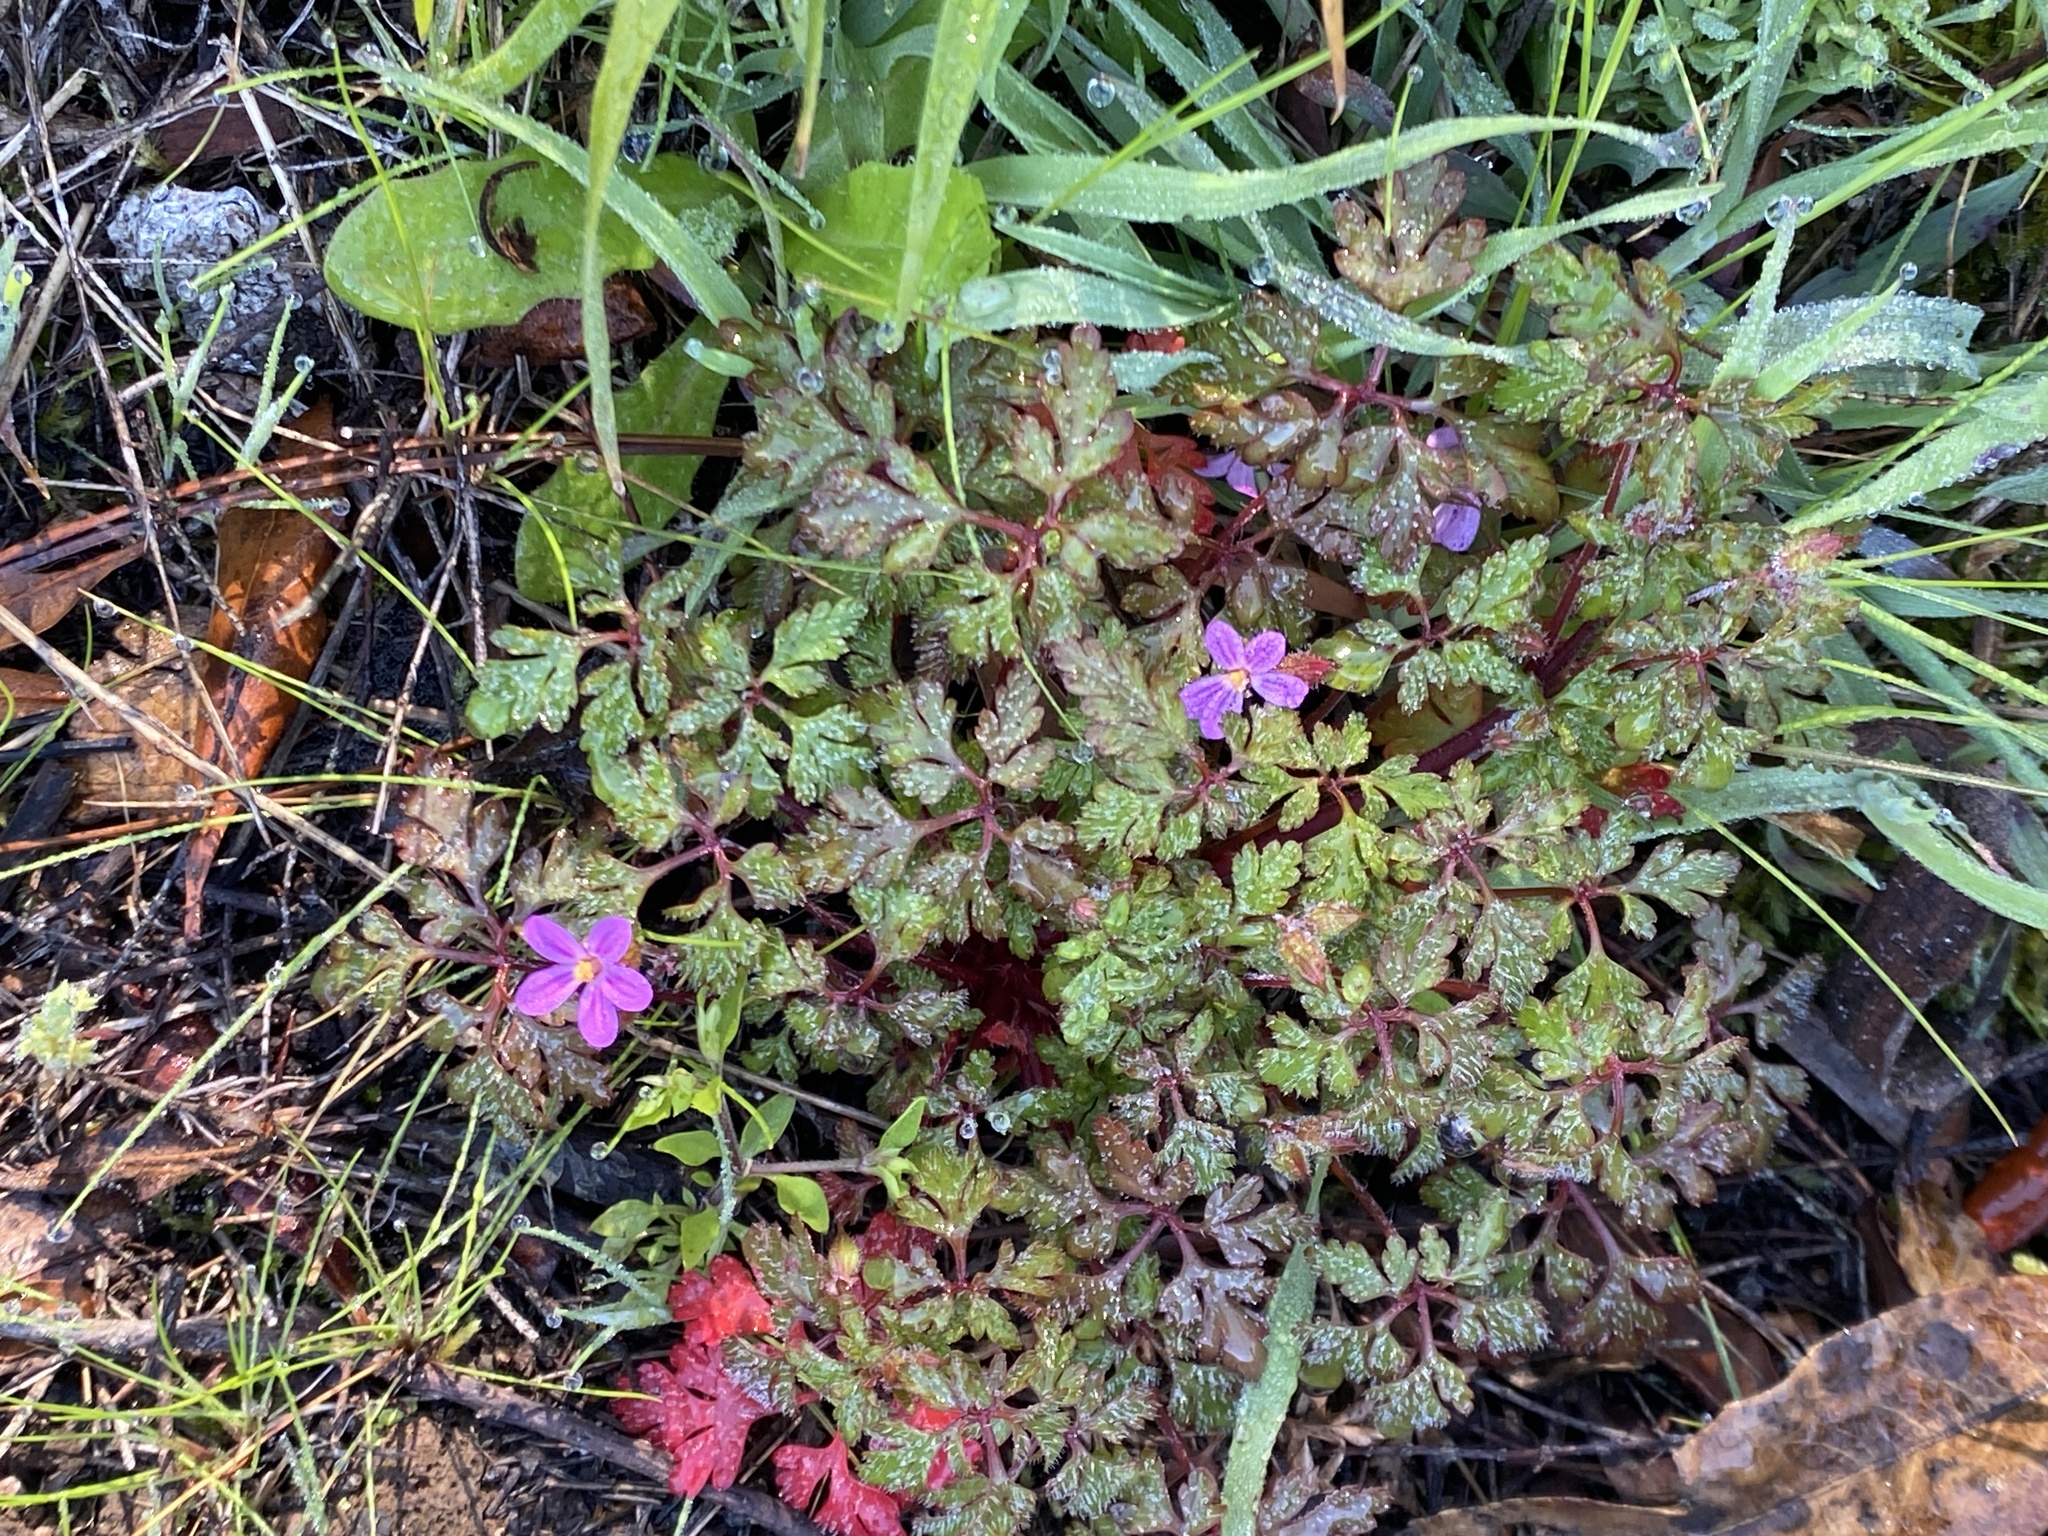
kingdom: Plantae
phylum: Tracheophyta
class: Magnoliopsida
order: Geraniales
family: Geraniaceae
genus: Geranium
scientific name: Geranium purpureum
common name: Little-robin
